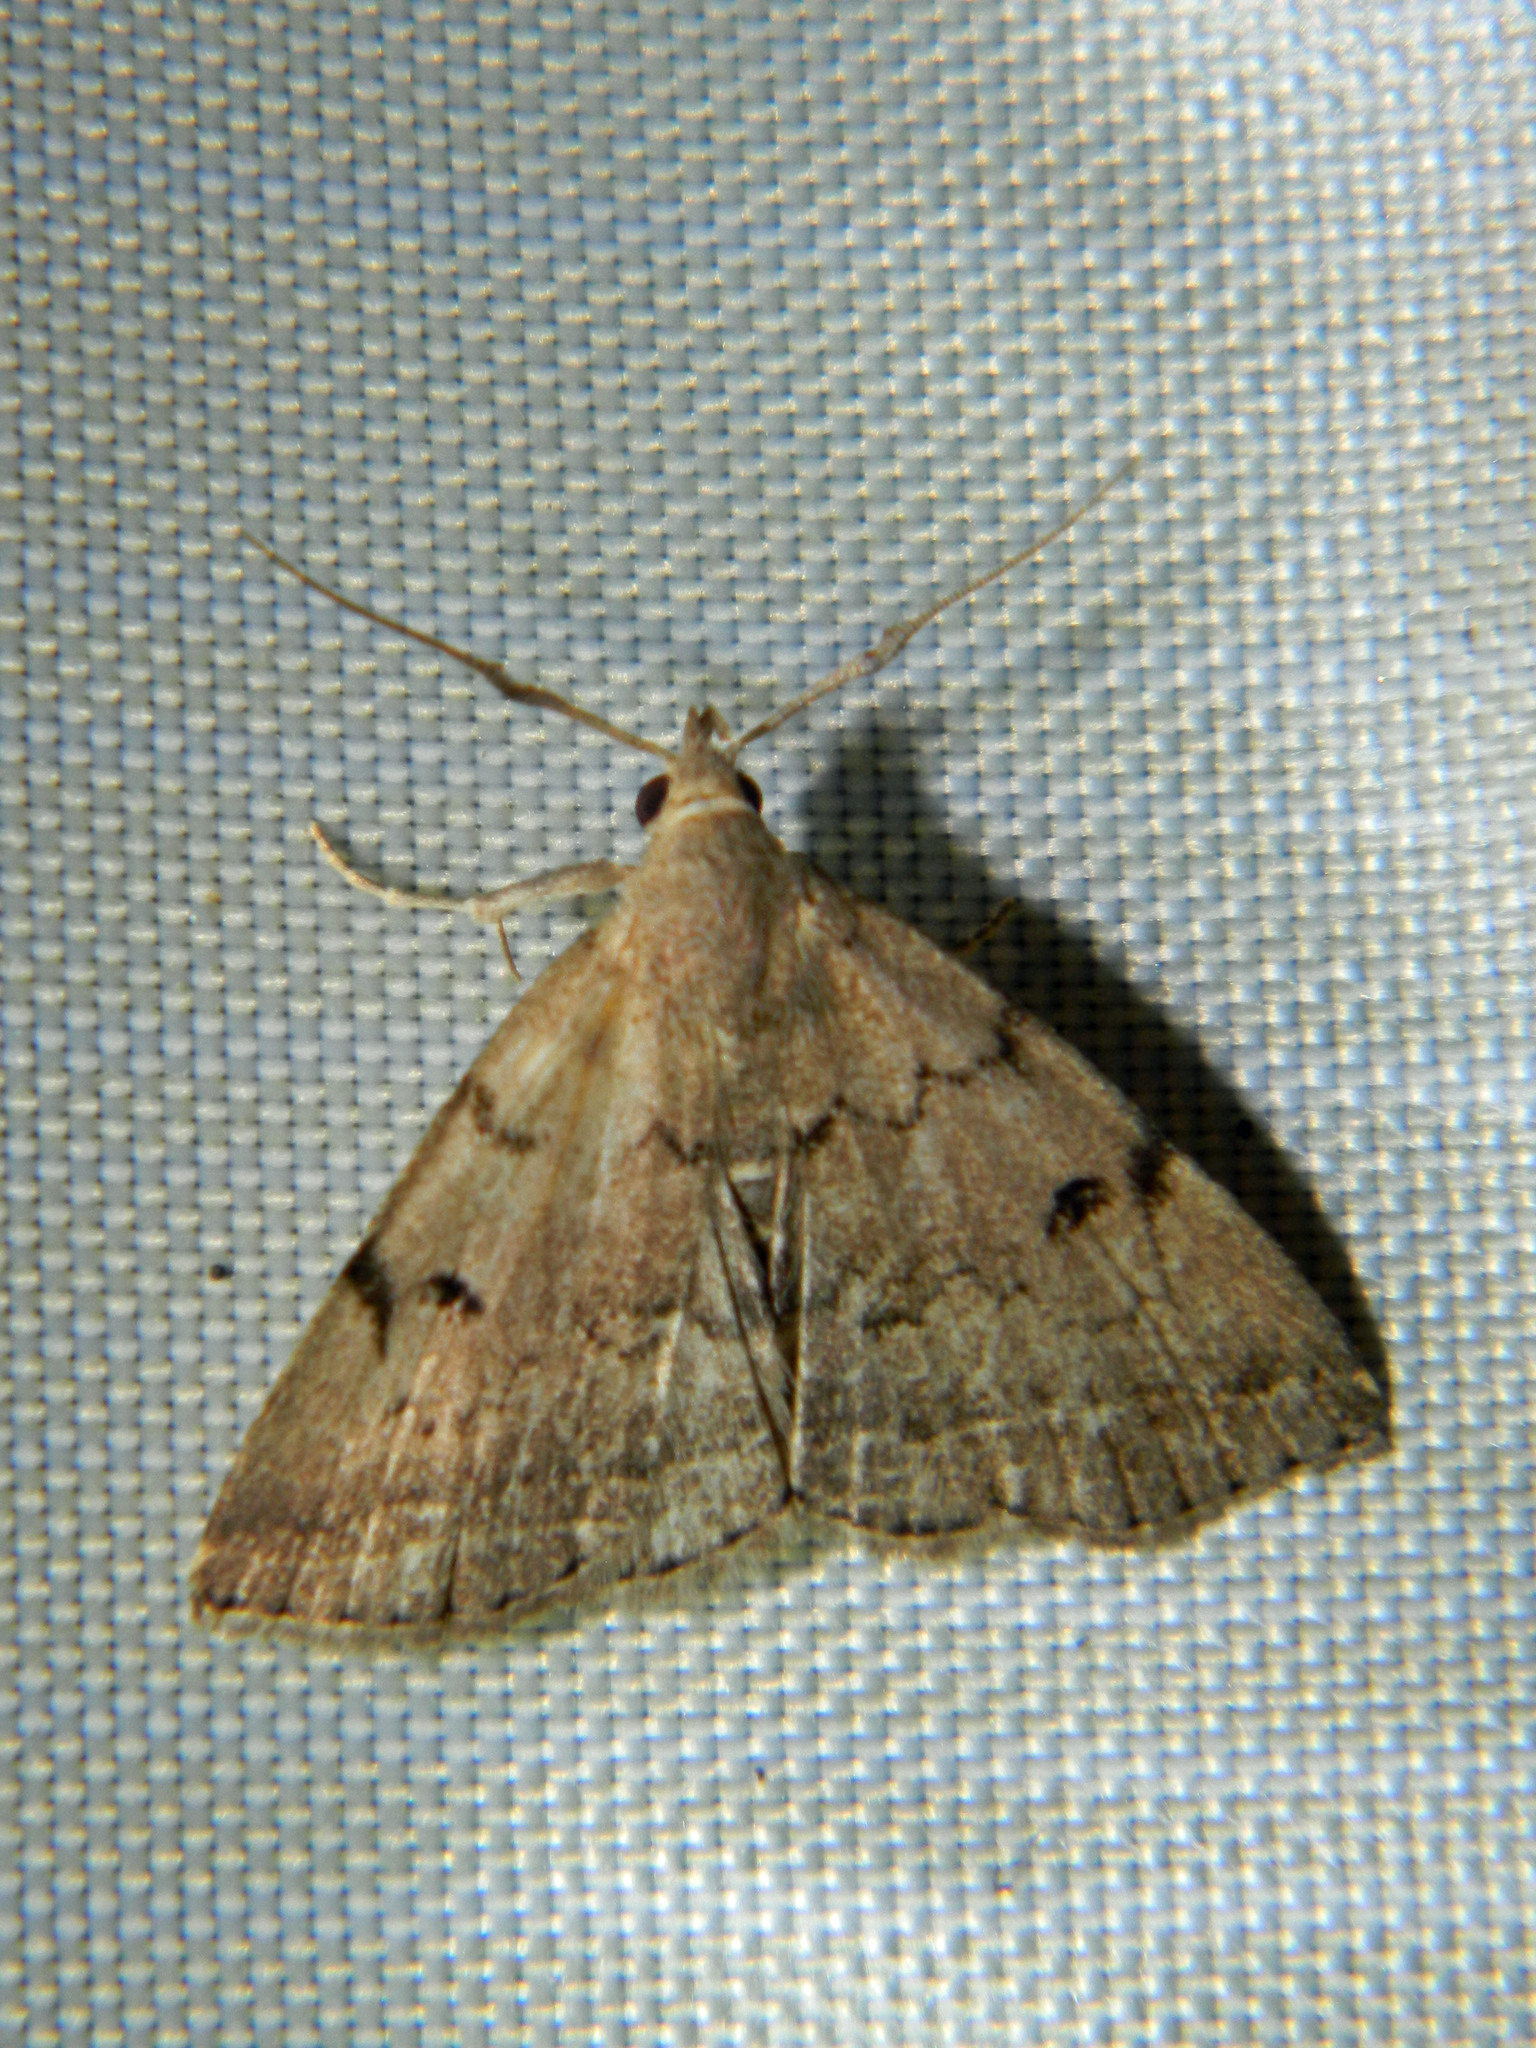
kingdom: Animalia
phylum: Arthropoda
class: Insecta
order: Lepidoptera
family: Erebidae
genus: Zanclognatha
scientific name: Zanclognatha dentata
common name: Toothed fan-foot
